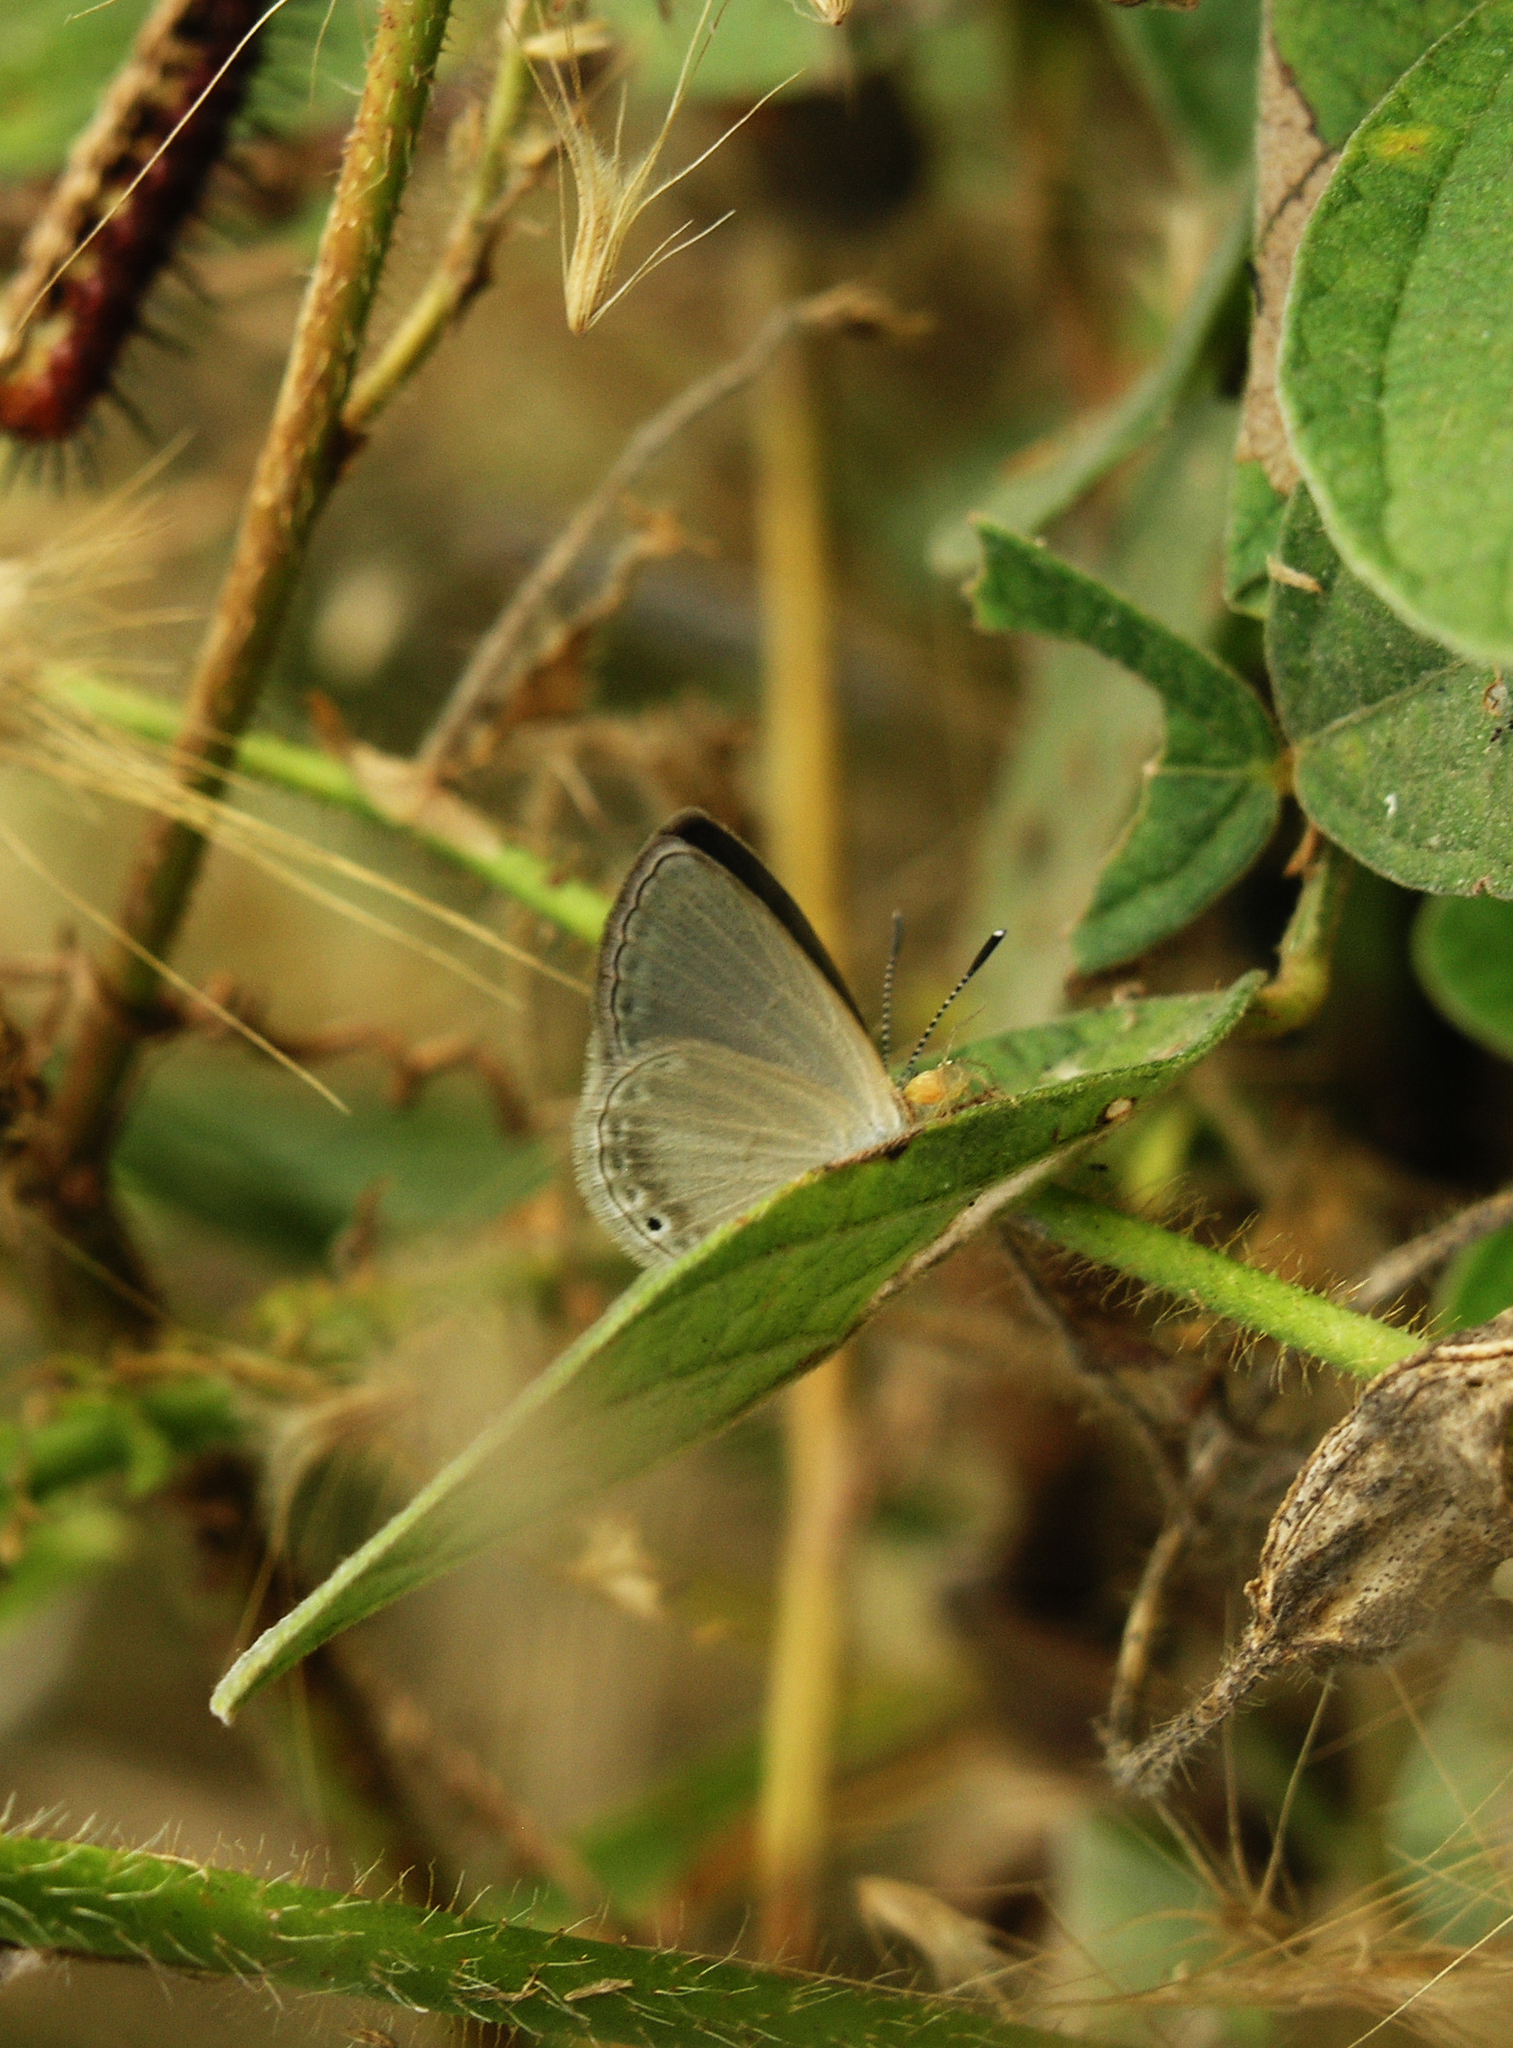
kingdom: Animalia
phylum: Arthropoda
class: Insecta
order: Lepidoptera
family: Lycaenidae
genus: Cupido
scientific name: Cupido nisa
